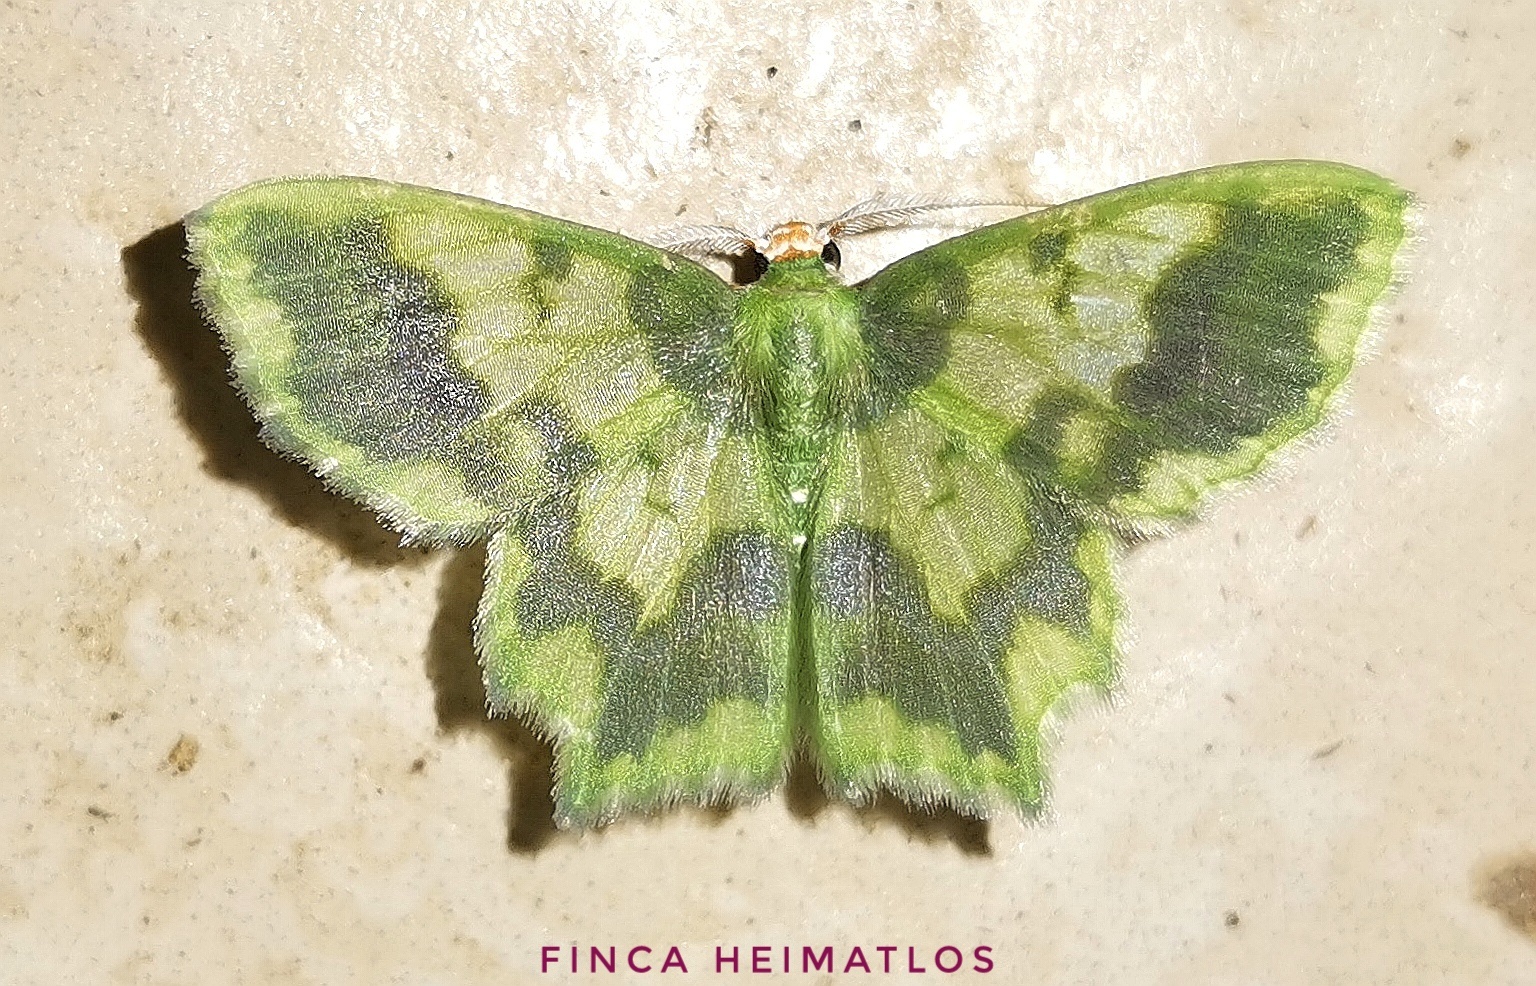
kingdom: Animalia
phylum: Arthropoda
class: Insecta
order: Lepidoptera
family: Geometridae
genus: Cathydata
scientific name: Cathydata batina
